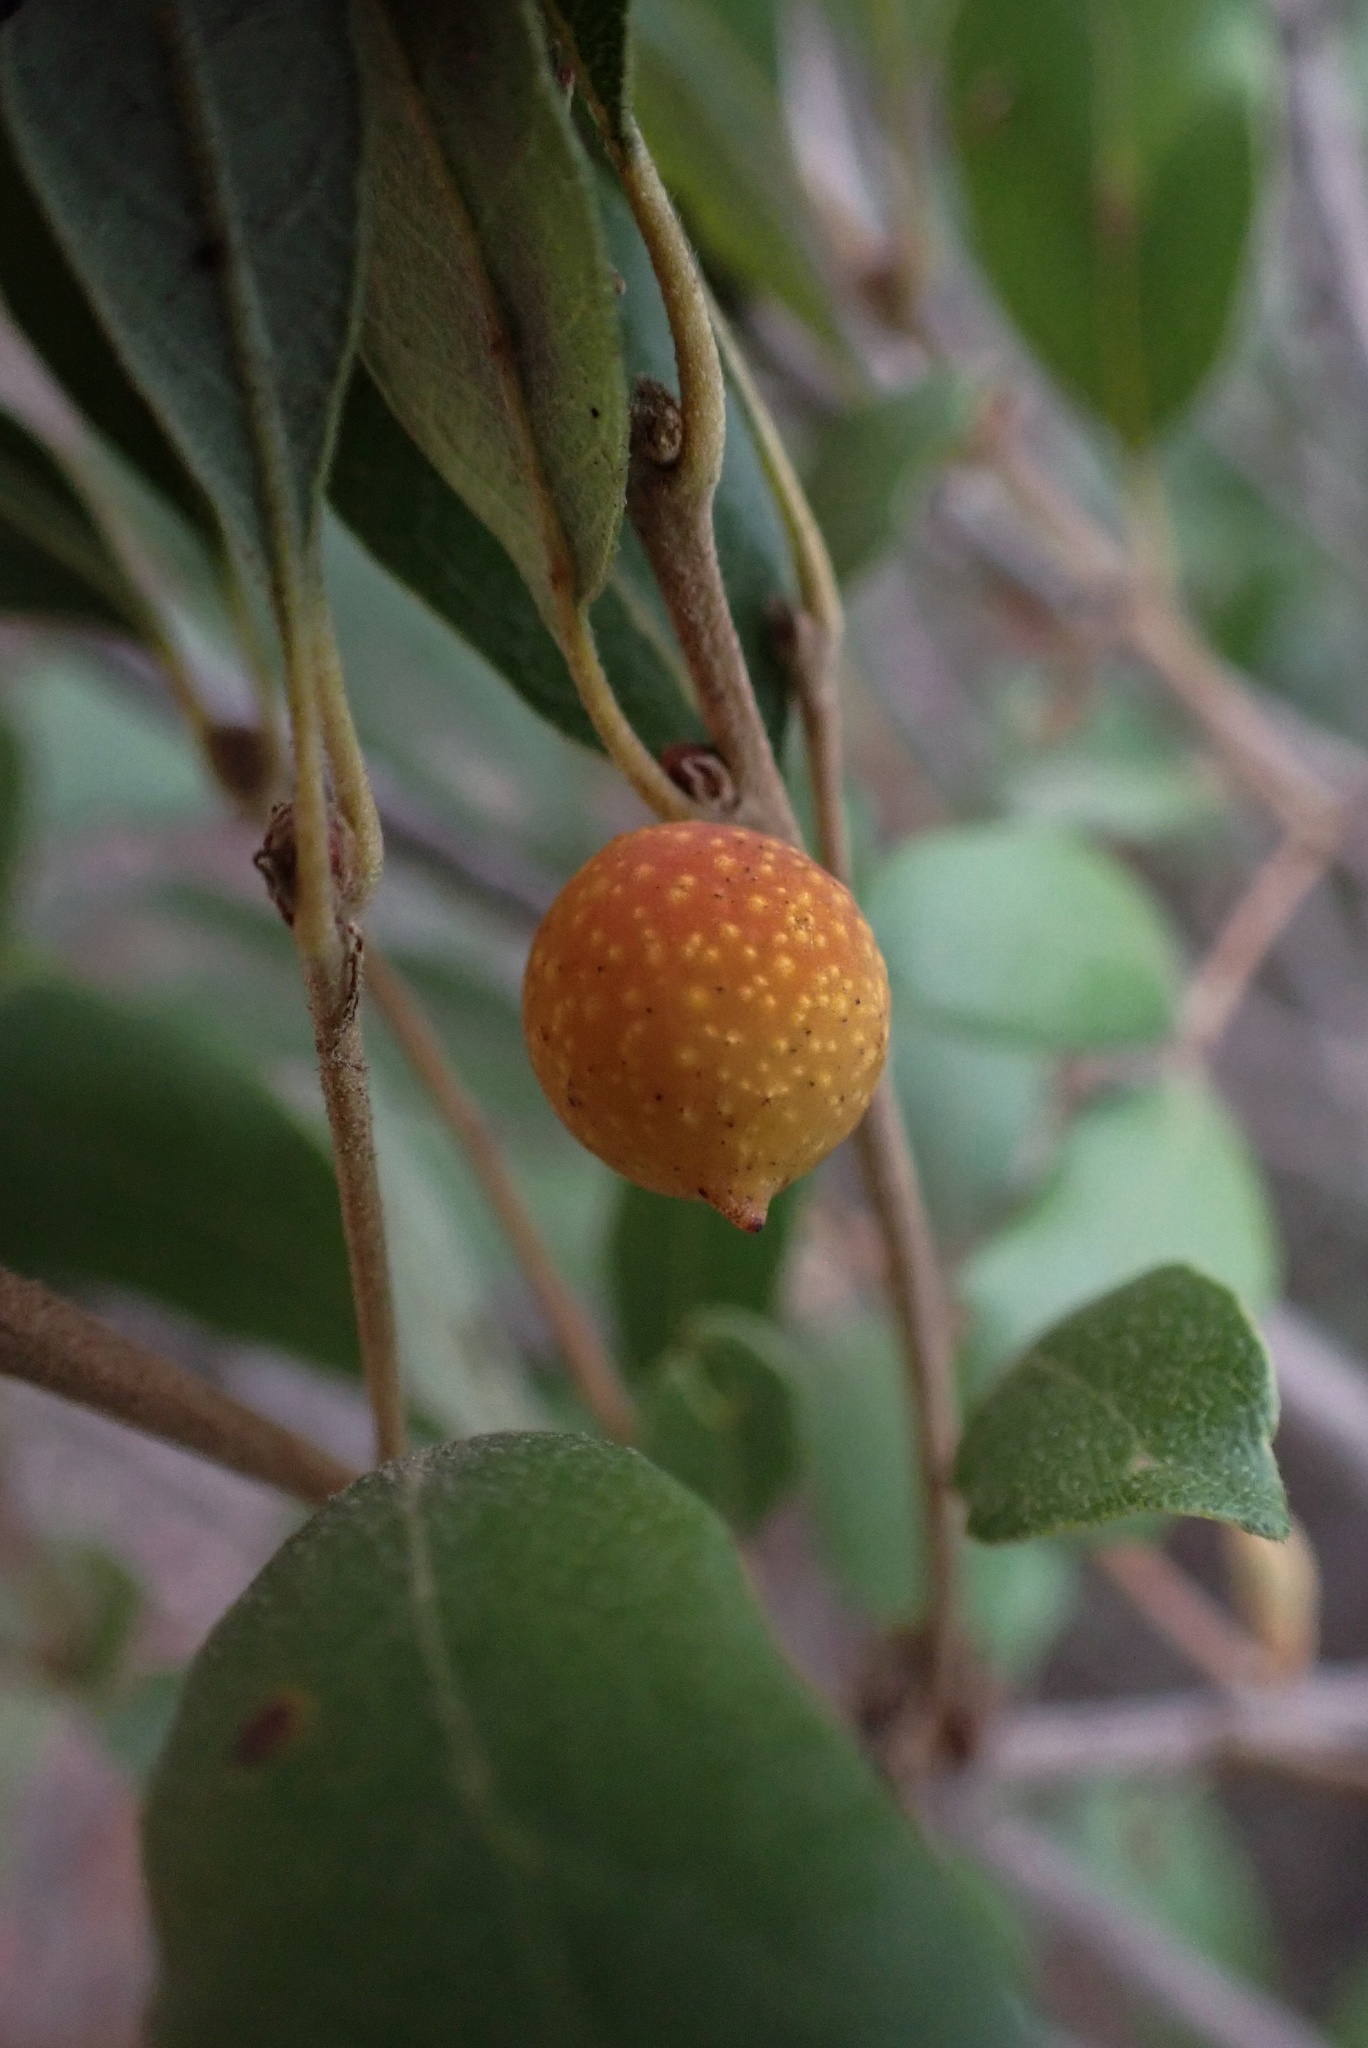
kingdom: Animalia
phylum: Arthropoda
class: Insecta
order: Hymenoptera
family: Cynipidae
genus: Burnettweldia
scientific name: Burnettweldia
